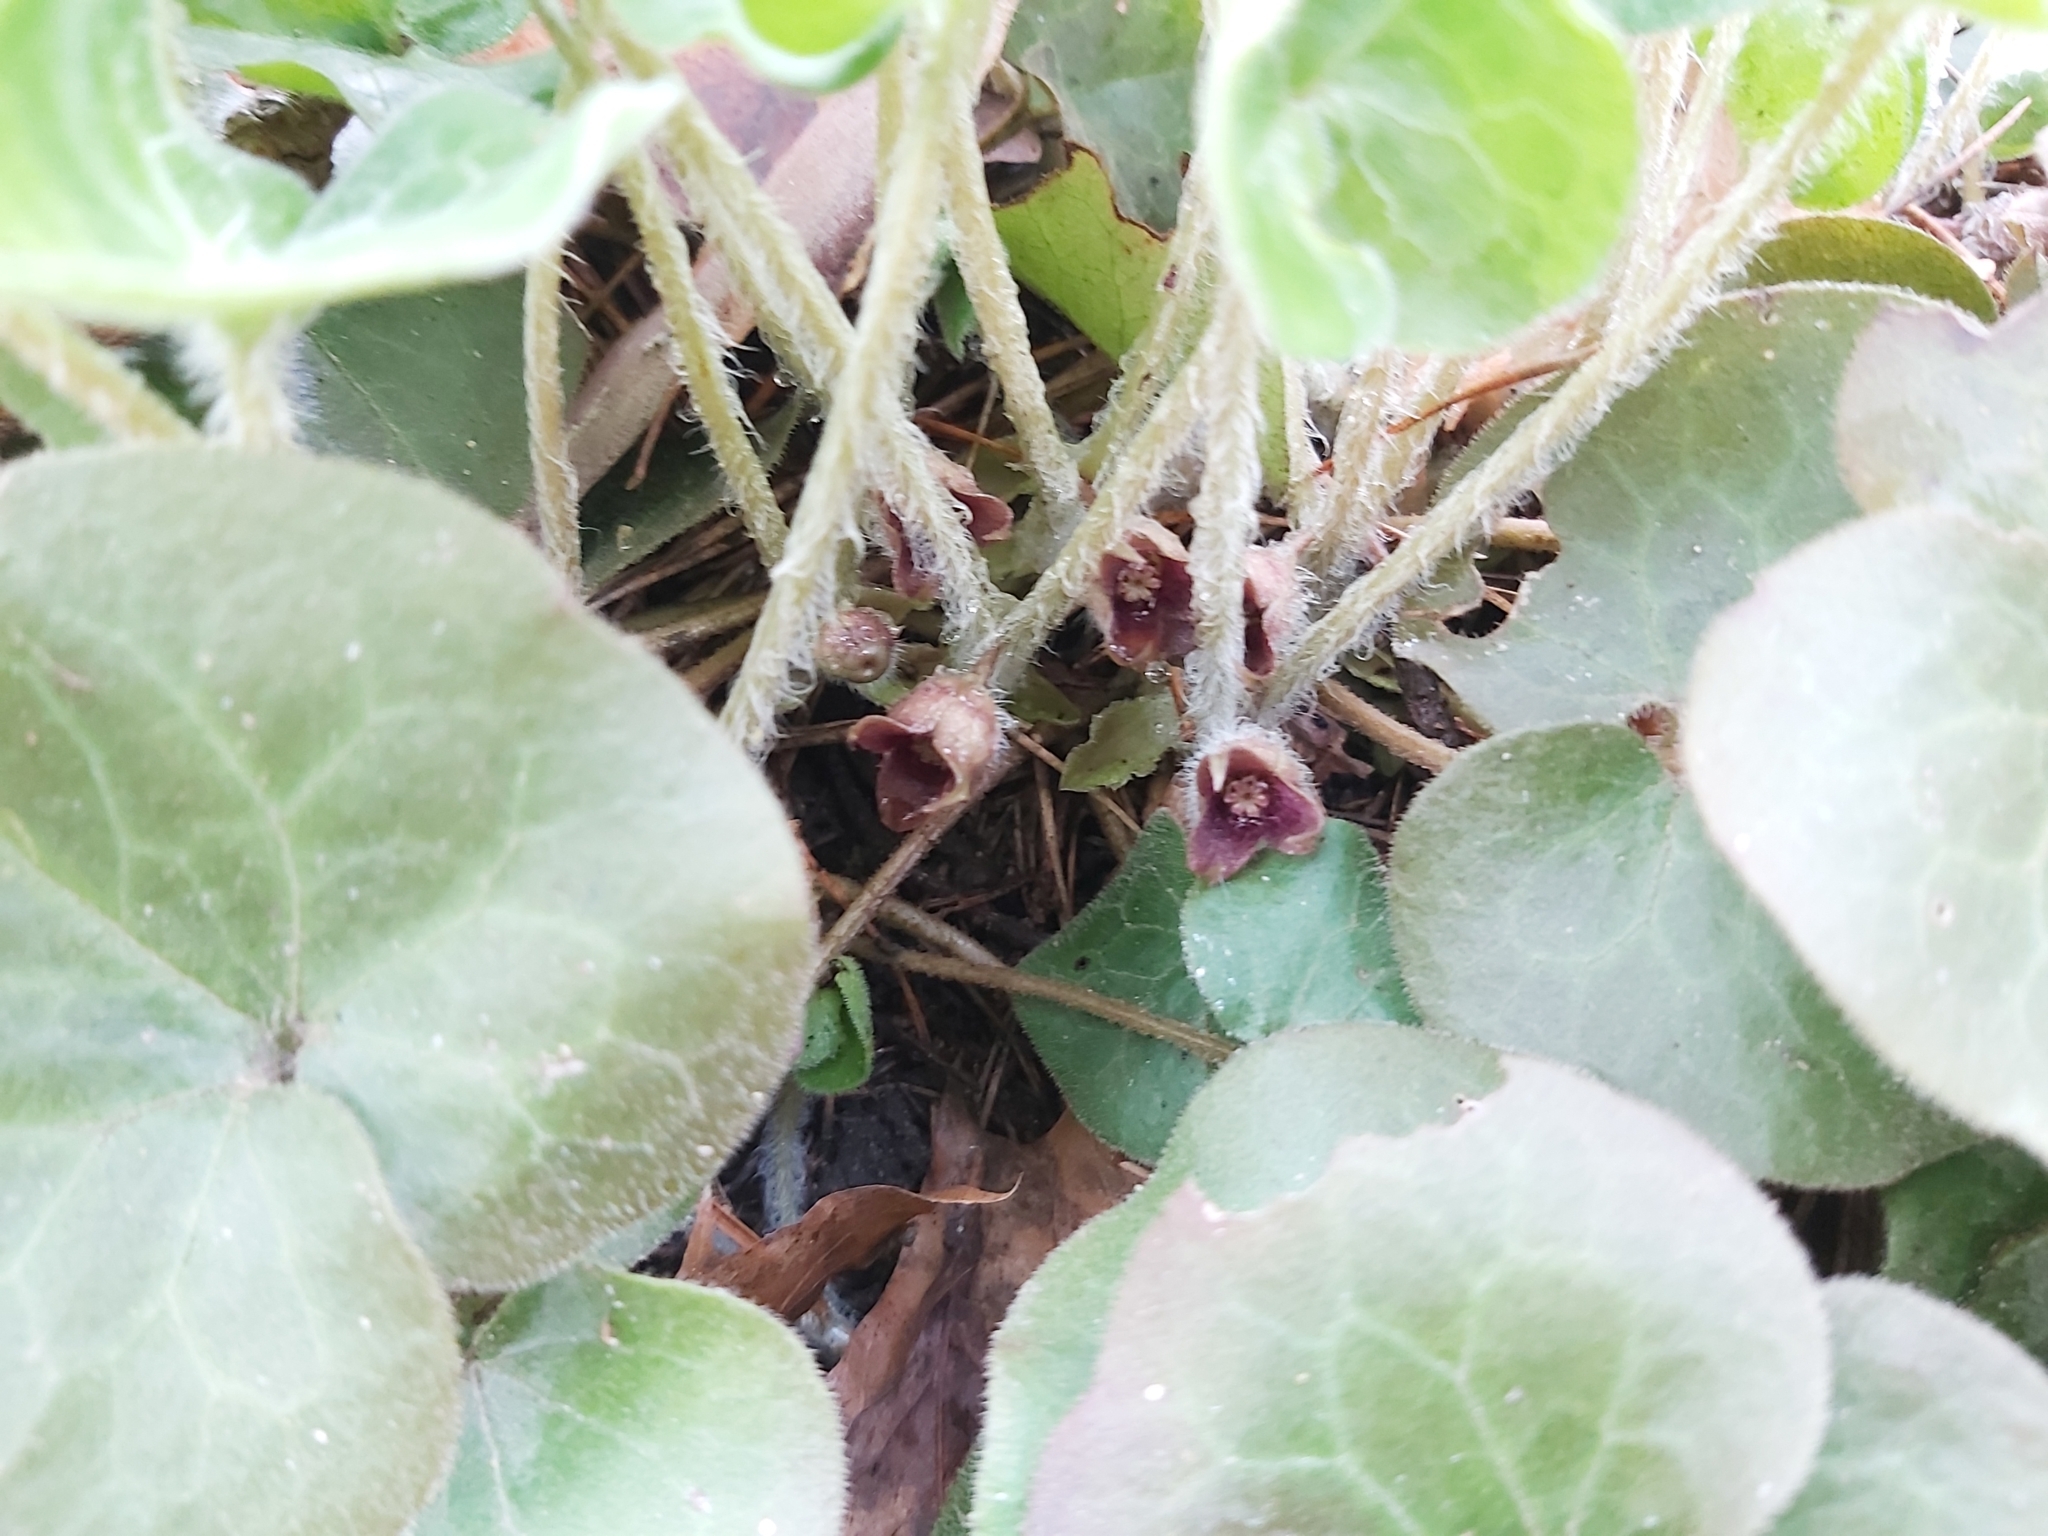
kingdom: Plantae
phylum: Tracheophyta
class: Magnoliopsida
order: Piperales
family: Aristolochiaceae
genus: Asarum
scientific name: Asarum europaeum
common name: Asarabacca
